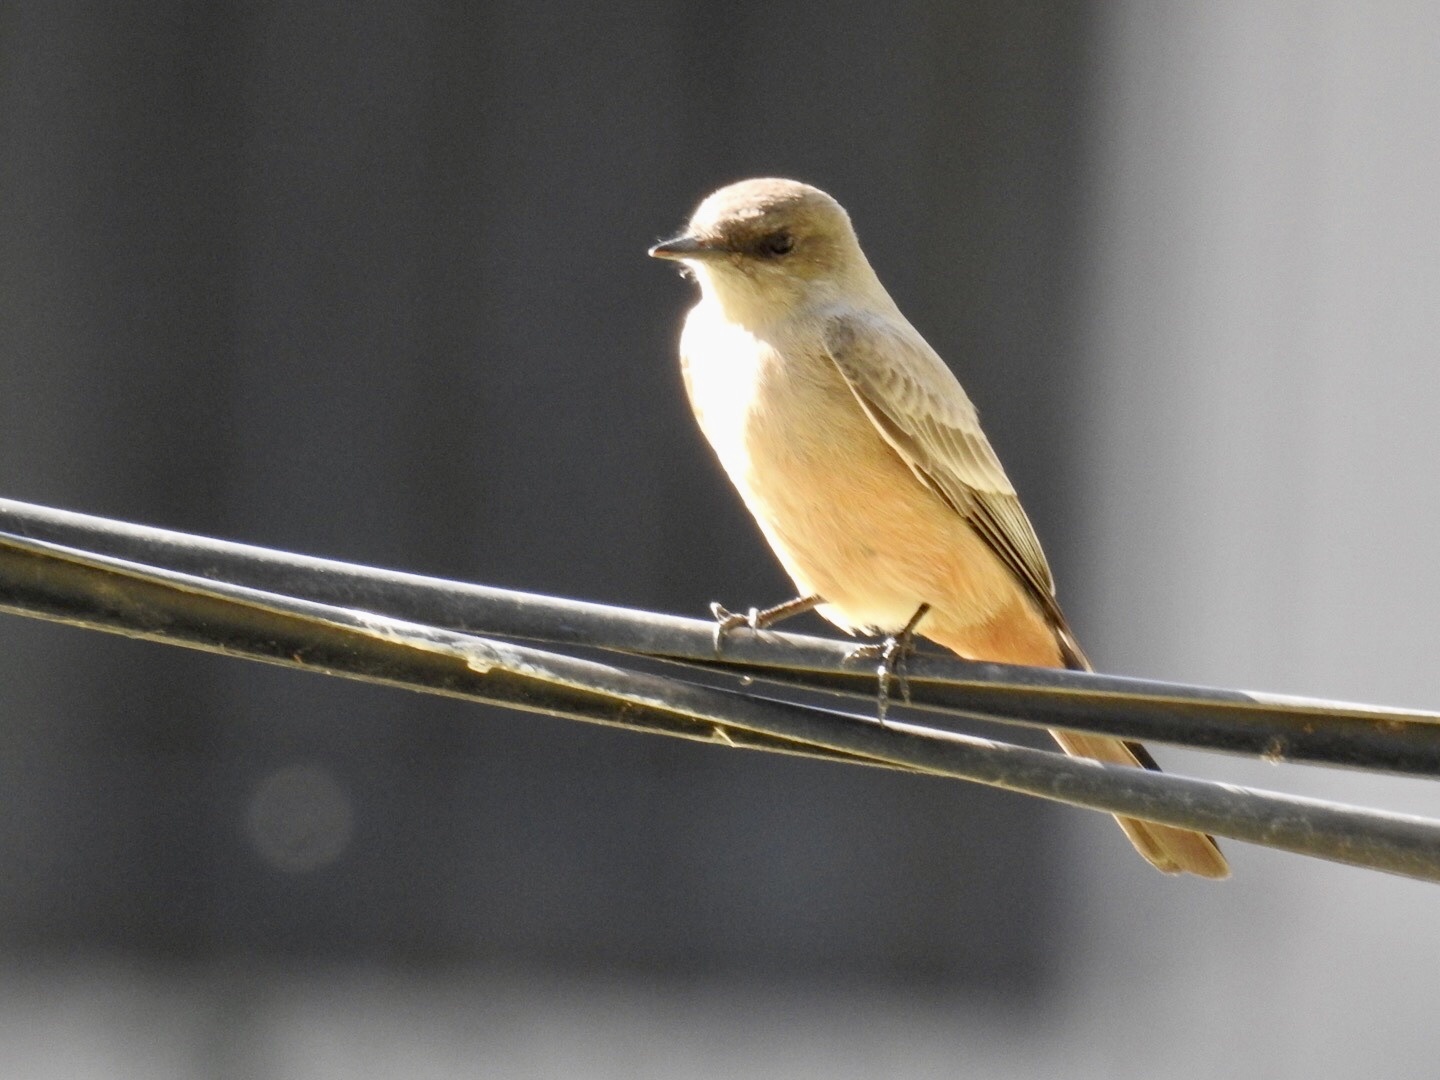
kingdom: Animalia
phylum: Chordata
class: Aves
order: Passeriformes
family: Tyrannidae
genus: Sayornis
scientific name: Sayornis saya
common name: Say's phoebe
